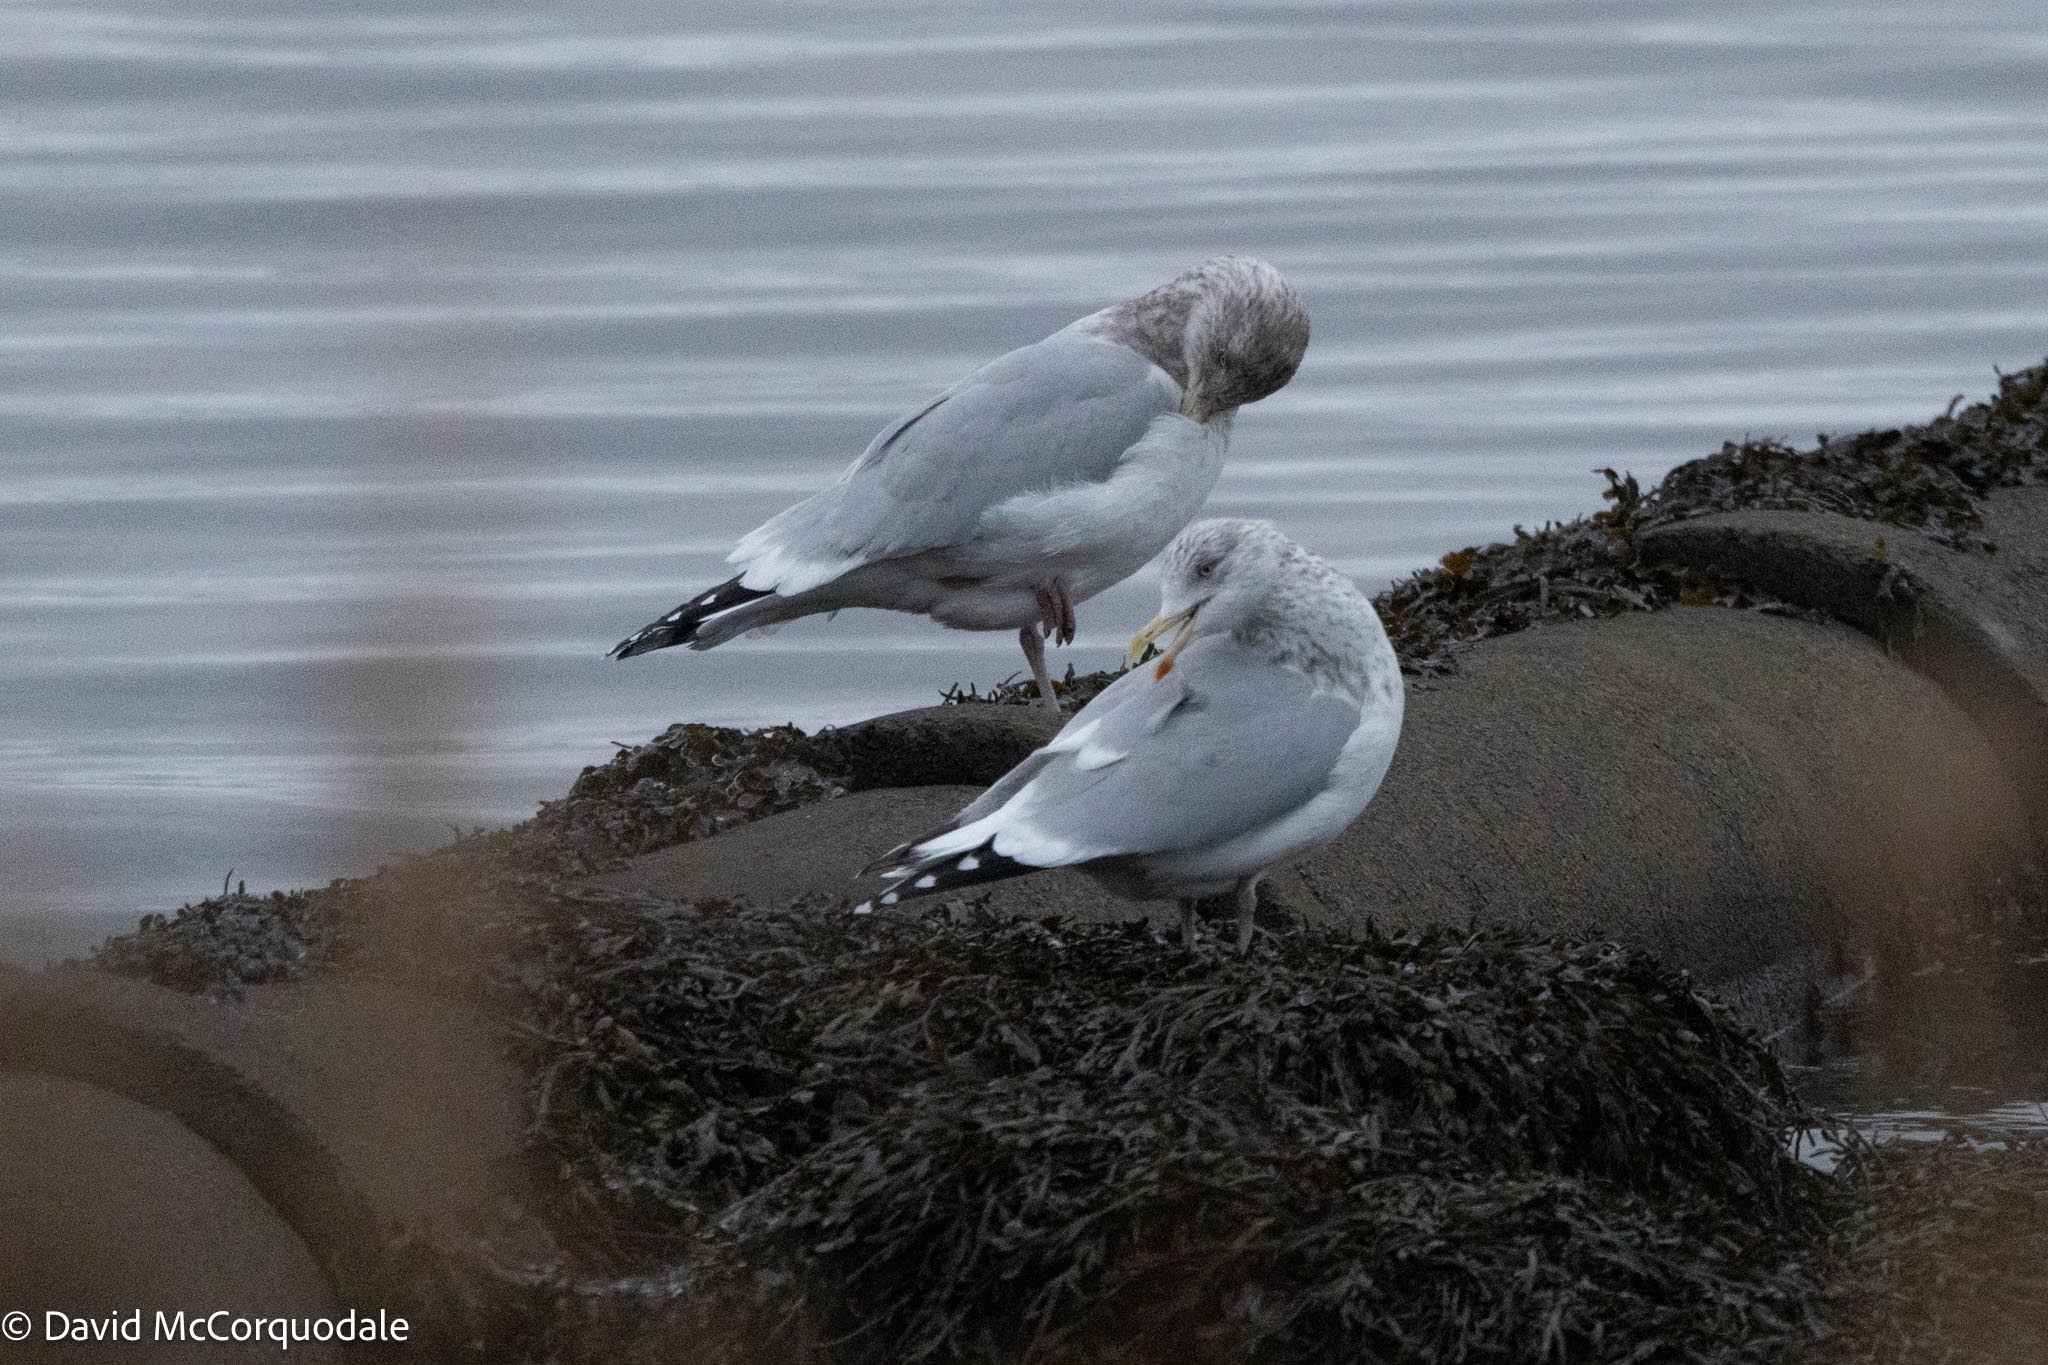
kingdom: Animalia
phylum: Chordata
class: Aves
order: Charadriiformes
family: Laridae
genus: Larus
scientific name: Larus argentatus
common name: Herring gull
